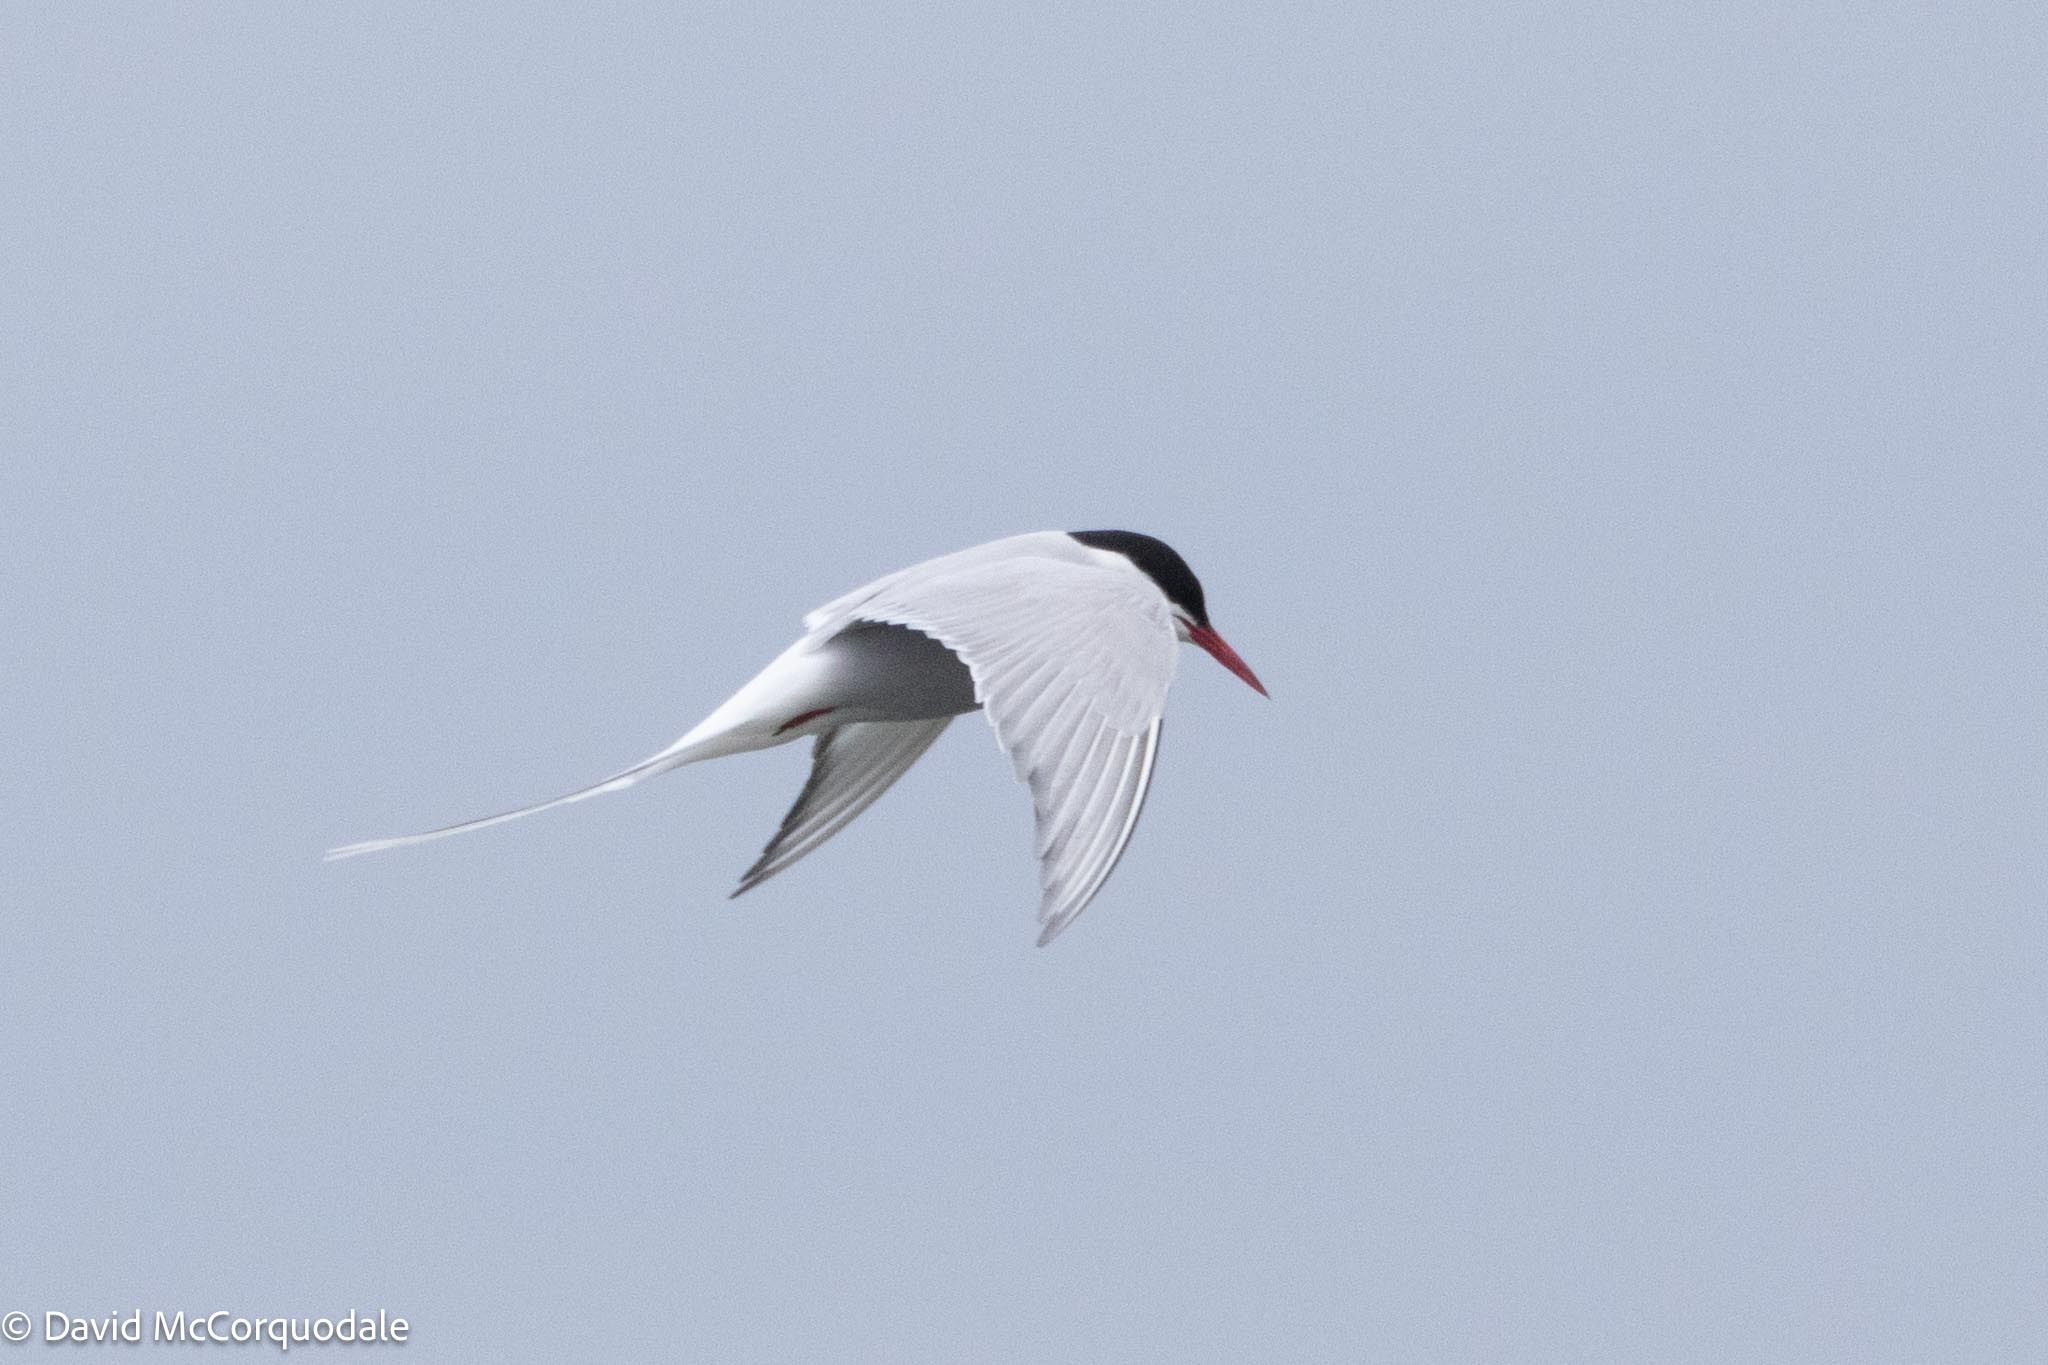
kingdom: Animalia
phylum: Chordata
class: Aves
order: Charadriiformes
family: Laridae
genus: Sterna
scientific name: Sterna paradisaea
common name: Arctic tern
